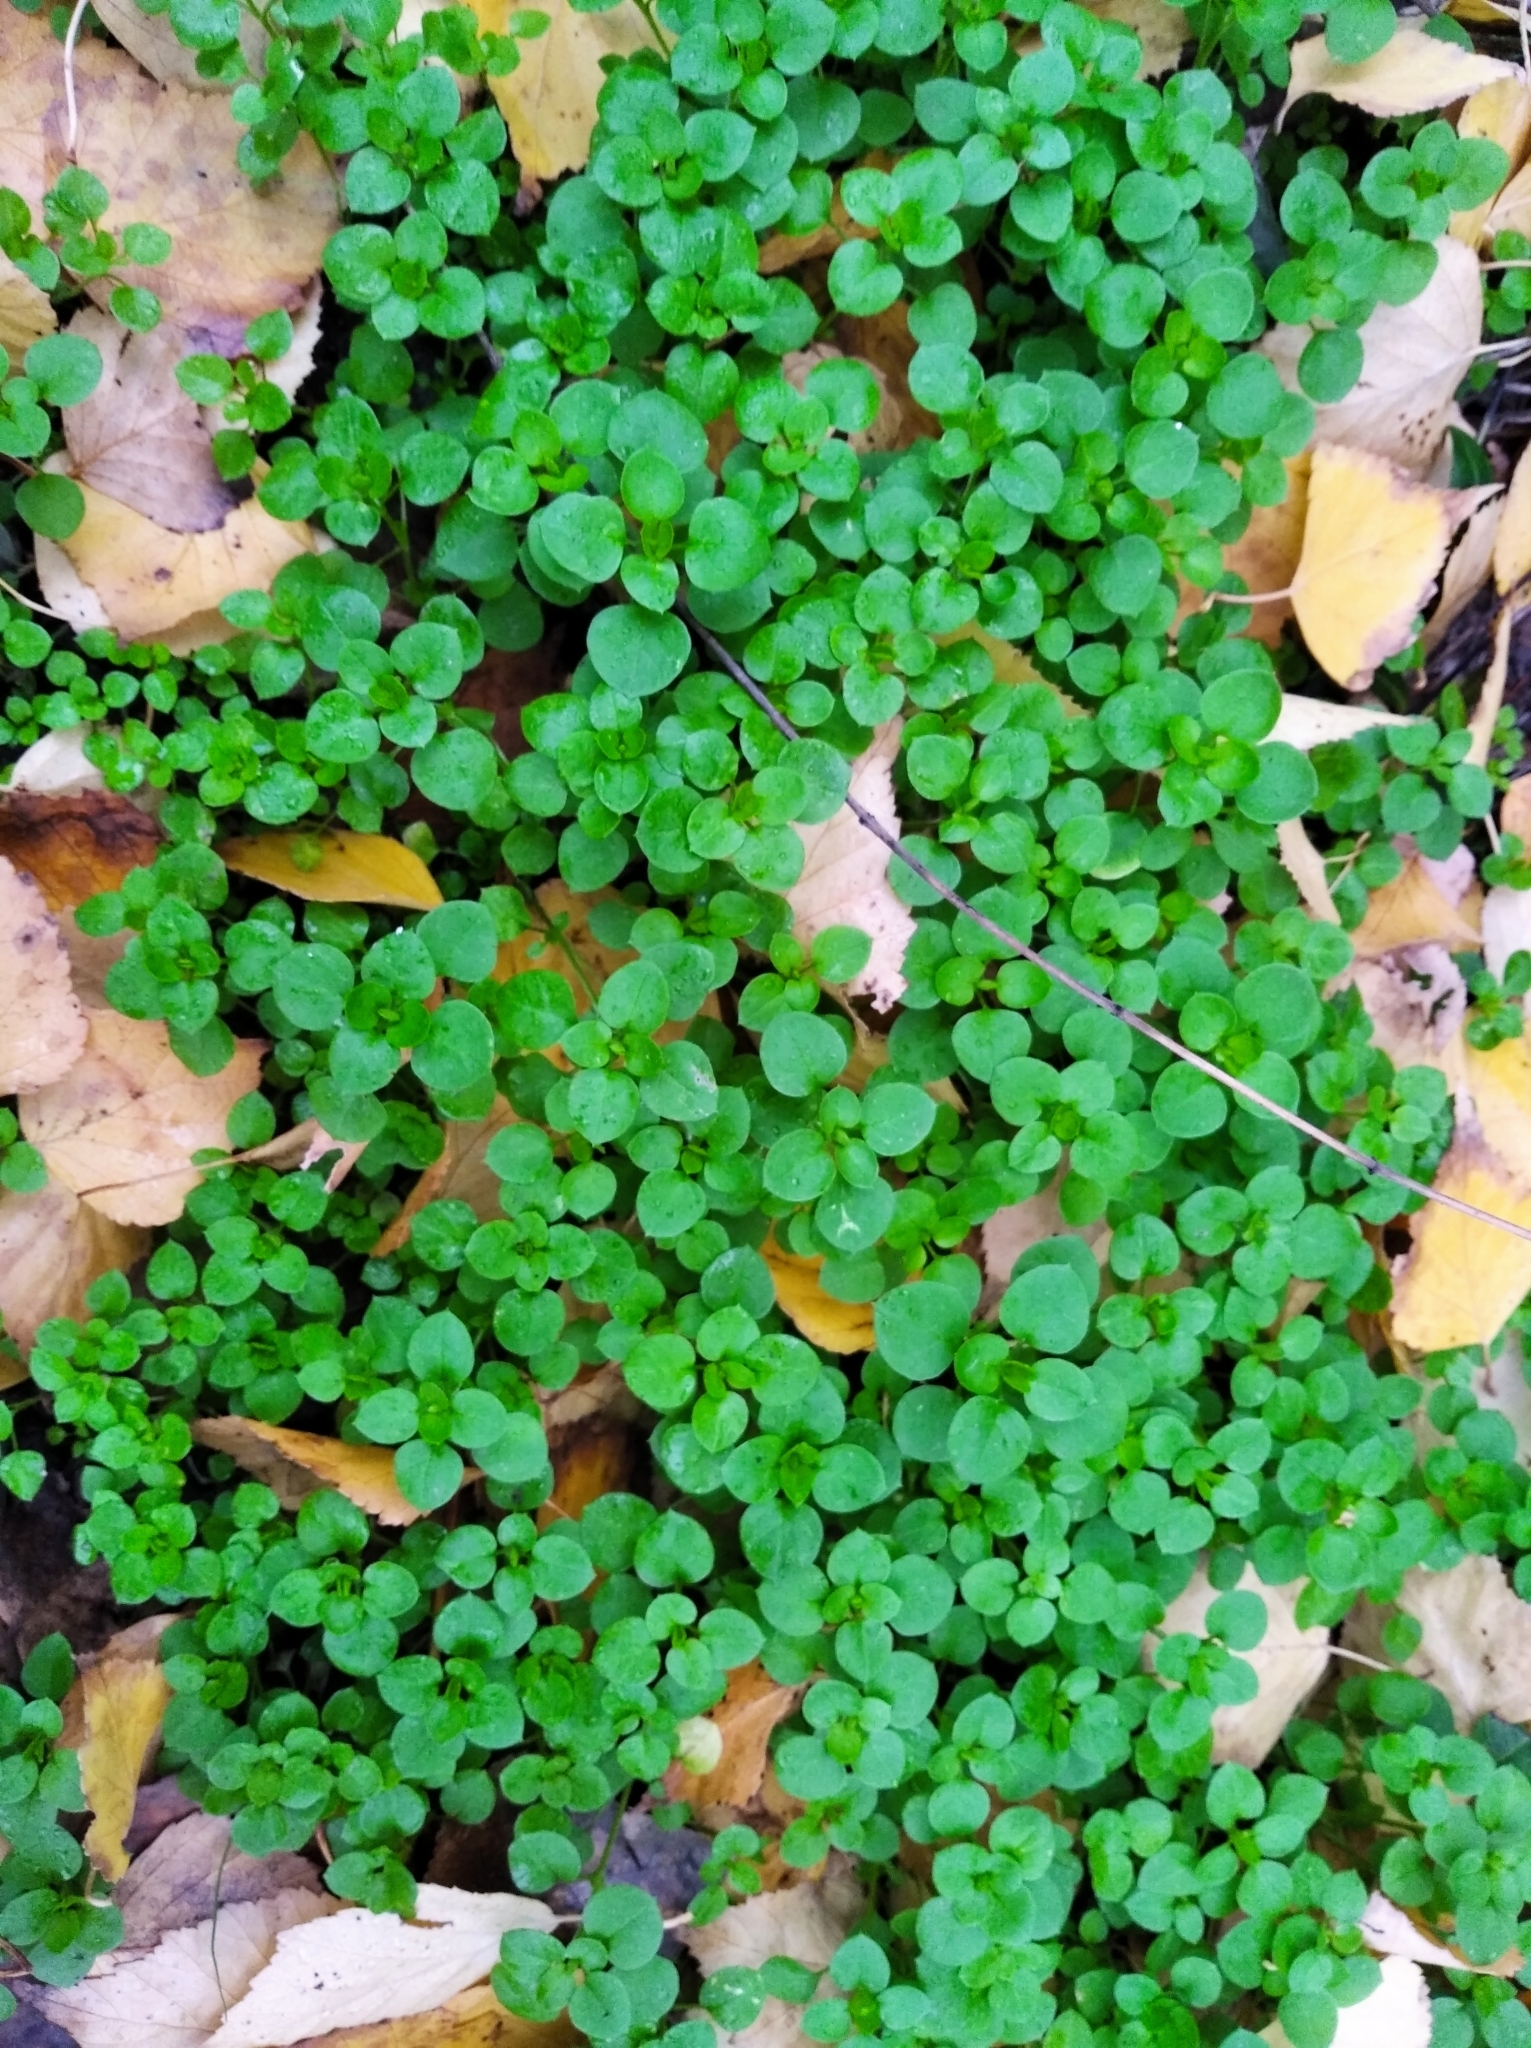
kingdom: Plantae
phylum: Tracheophyta
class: Magnoliopsida
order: Caryophyllales
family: Caryophyllaceae
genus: Stellaria
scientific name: Stellaria media
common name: Common chickweed
